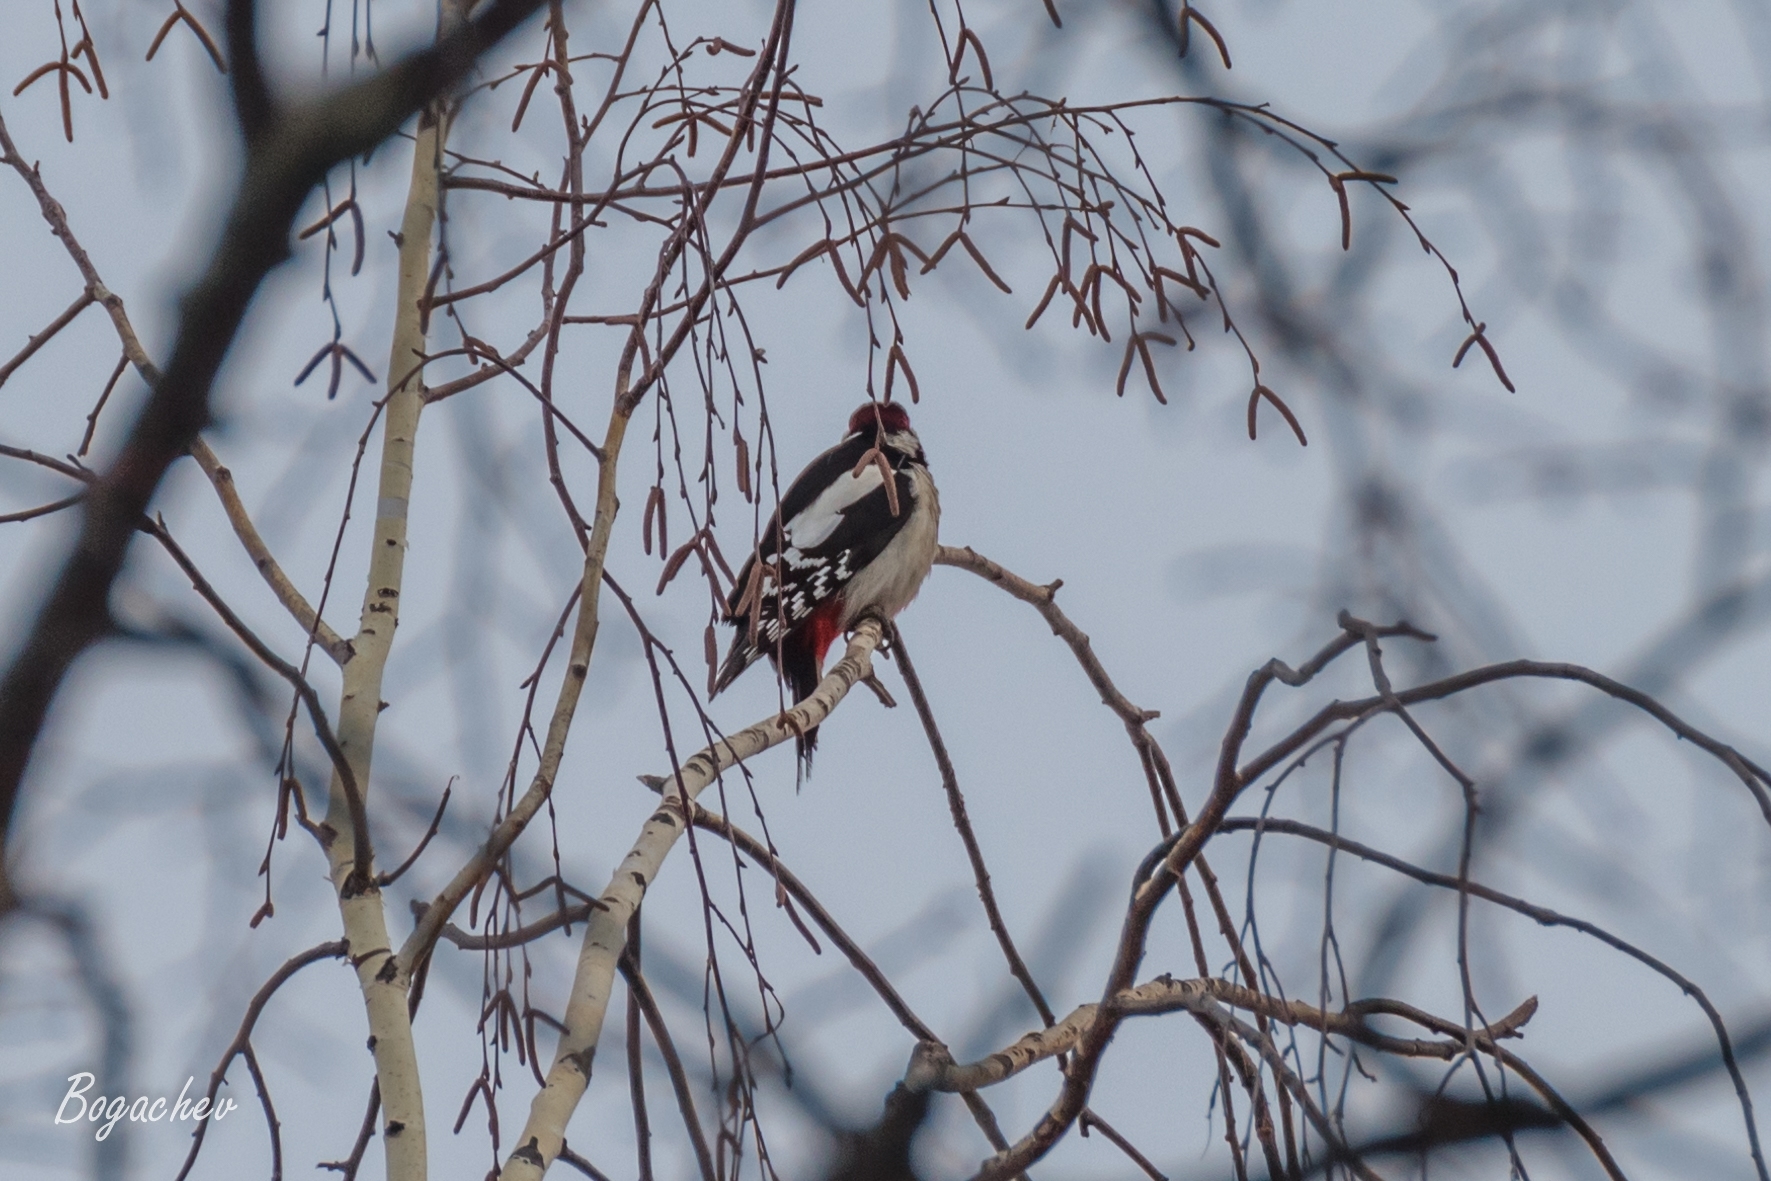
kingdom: Animalia
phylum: Chordata
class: Aves
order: Piciformes
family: Picidae
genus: Dendrocopos
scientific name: Dendrocopos major
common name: Great spotted woodpecker
